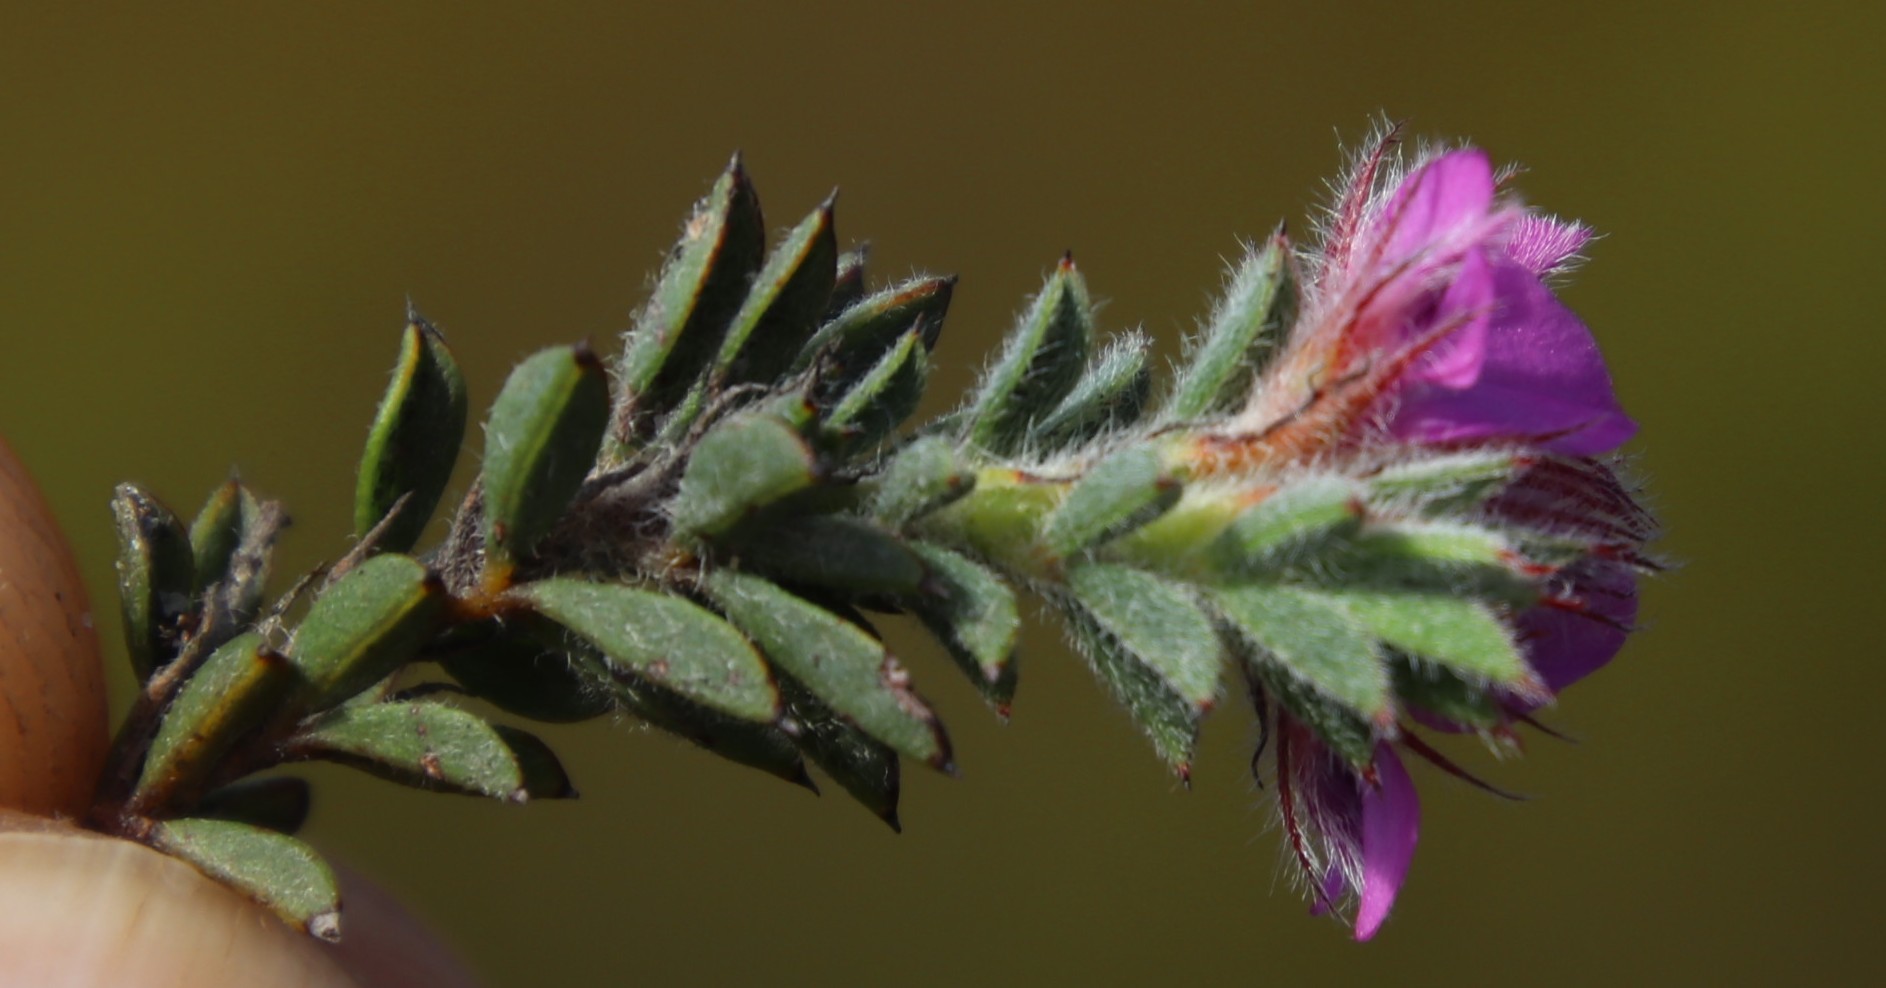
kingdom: Plantae
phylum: Tracheophyta
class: Magnoliopsida
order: Fabales
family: Fabaceae
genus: Indigofera
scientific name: Indigofera glomerata
